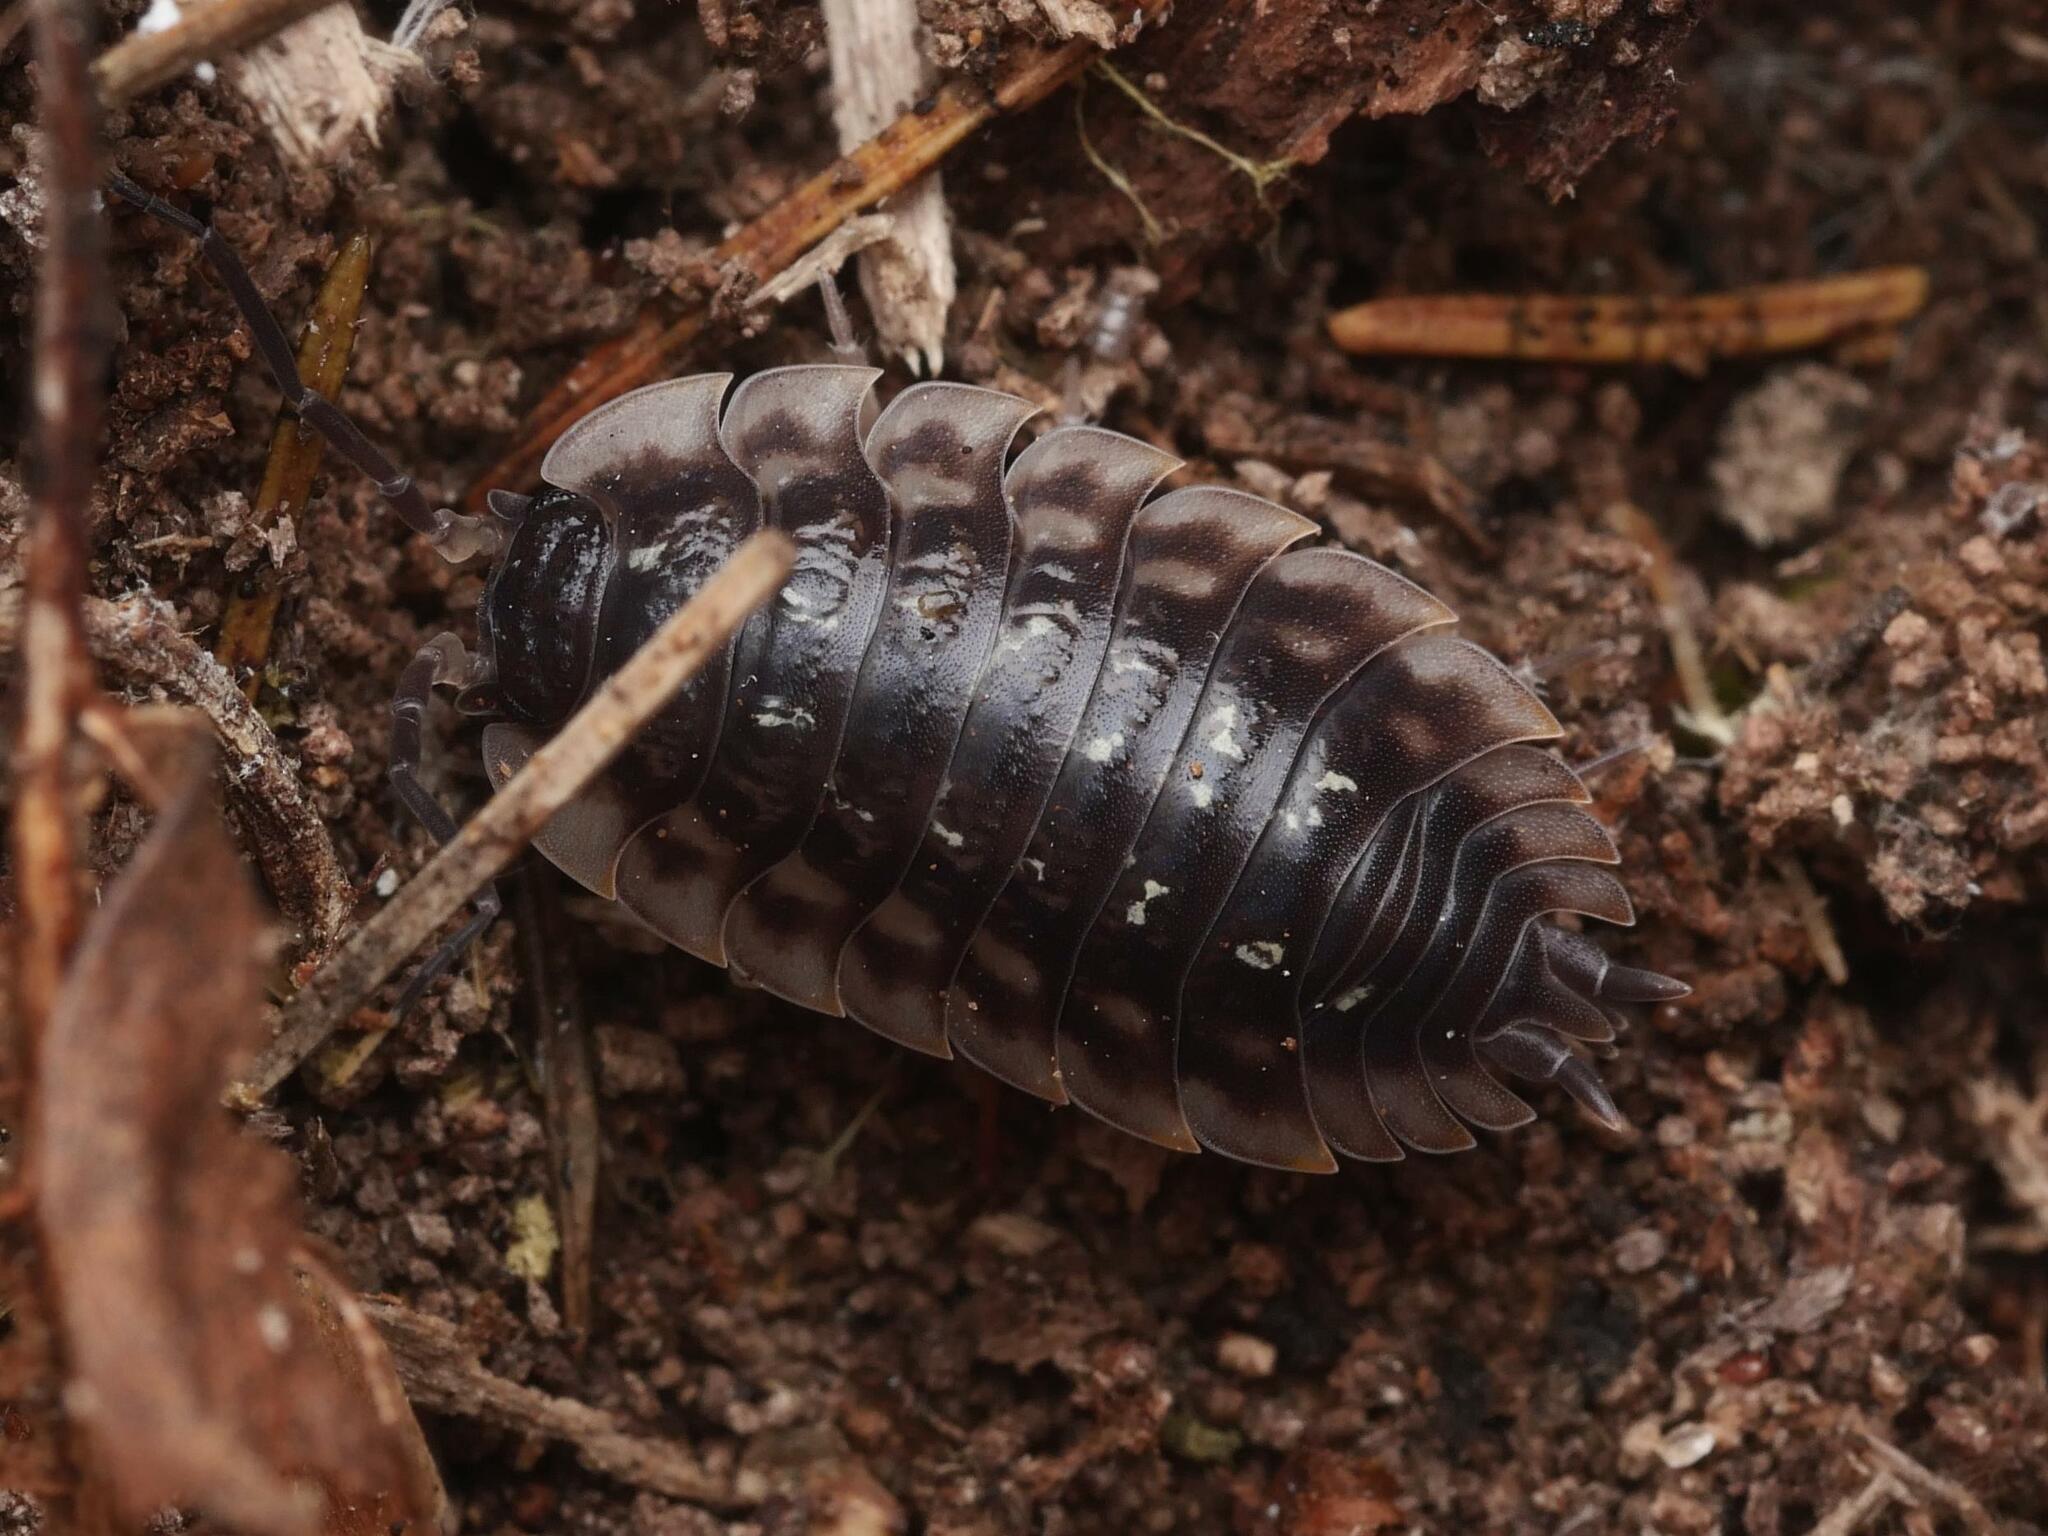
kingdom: Animalia
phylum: Arthropoda
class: Malacostraca
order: Isopoda
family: Oniscidae
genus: Oniscus
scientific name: Oniscus asellus
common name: Common shiny woodlouse
